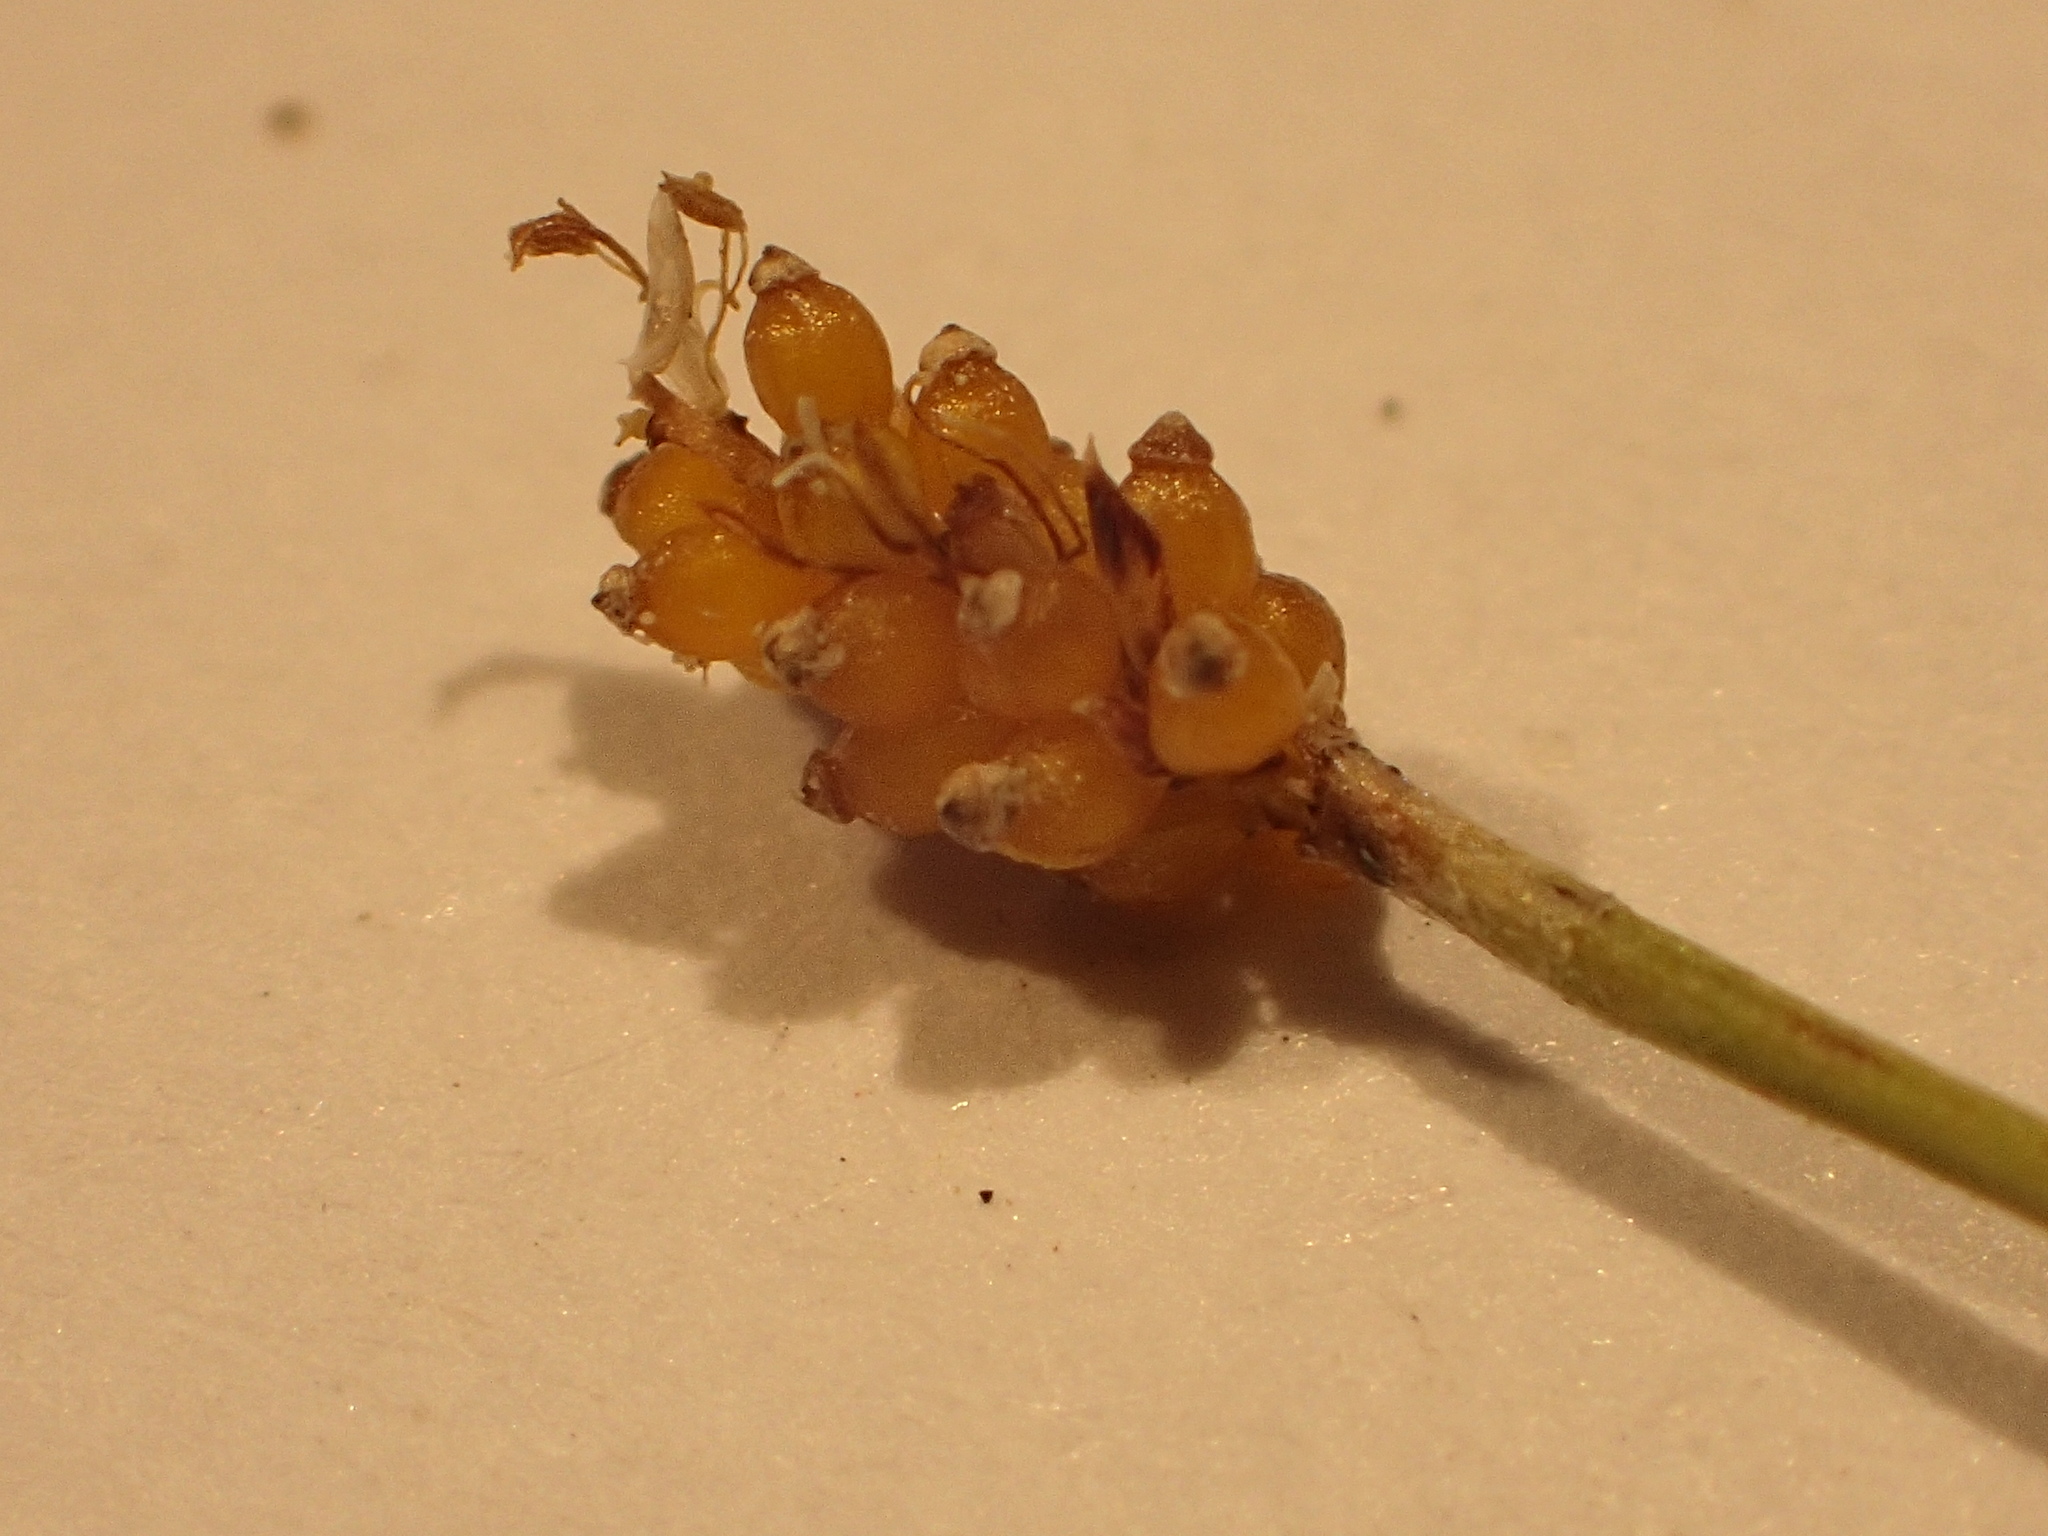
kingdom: Plantae
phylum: Tracheophyta
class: Liliopsida
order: Poales
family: Cyperaceae
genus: Eleocharis
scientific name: Eleocharis nitida
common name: Neat spikerush
